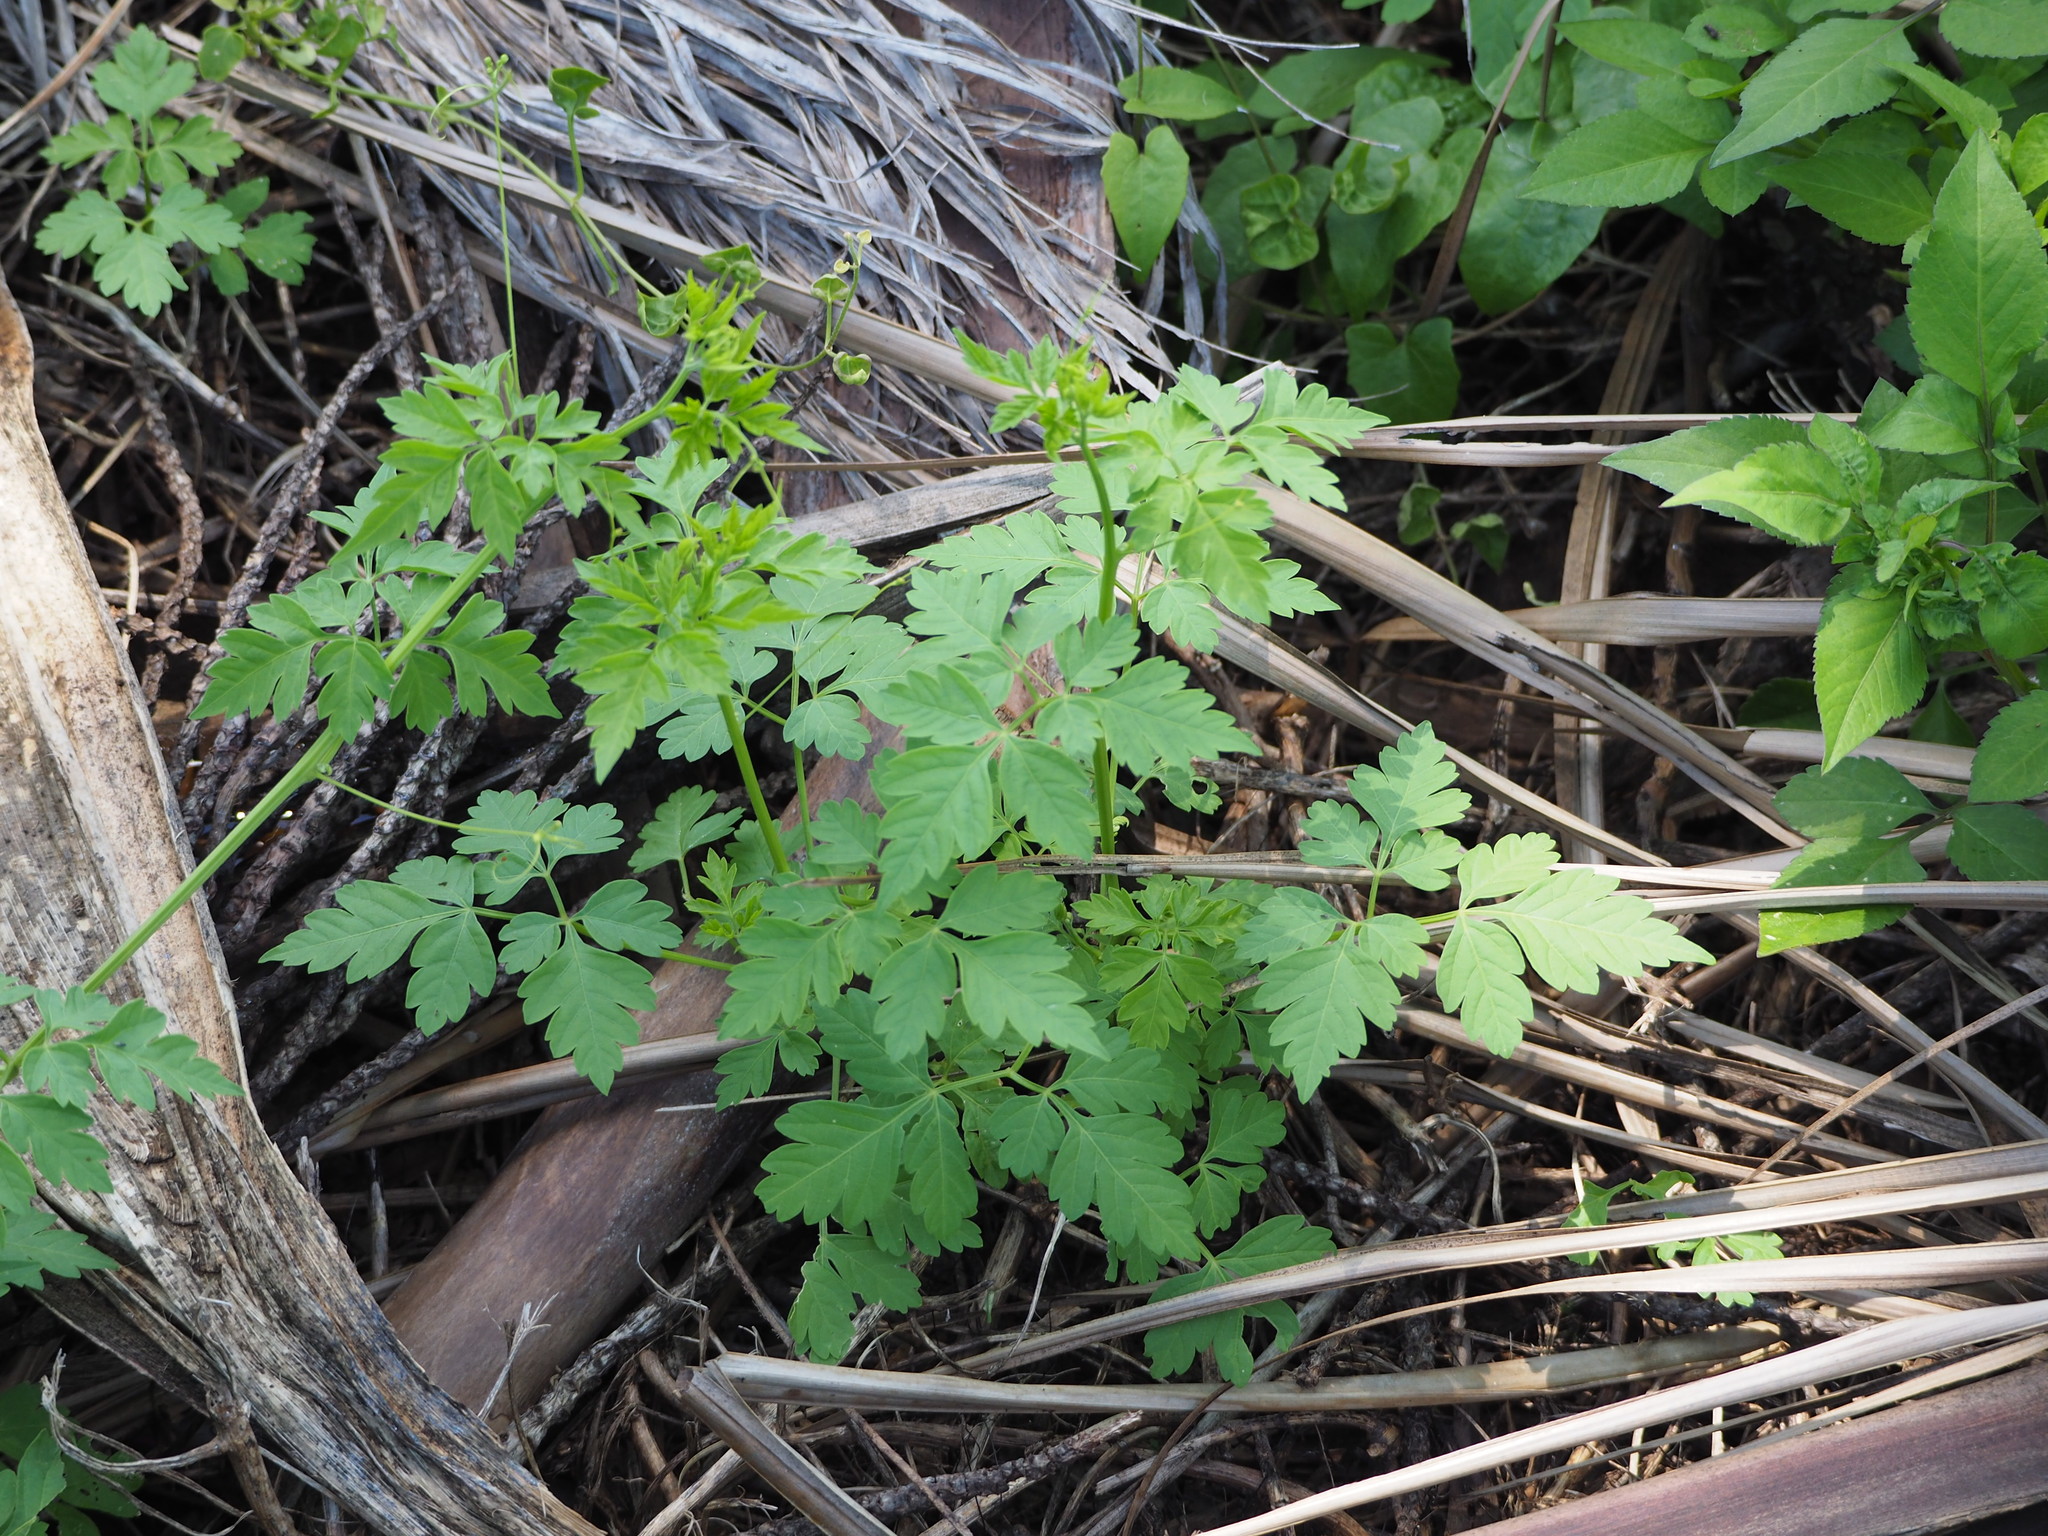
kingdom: Plantae
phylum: Tracheophyta
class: Magnoliopsida
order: Sapindales
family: Sapindaceae
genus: Cardiospermum
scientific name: Cardiospermum halicacabum
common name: Balloon vine
